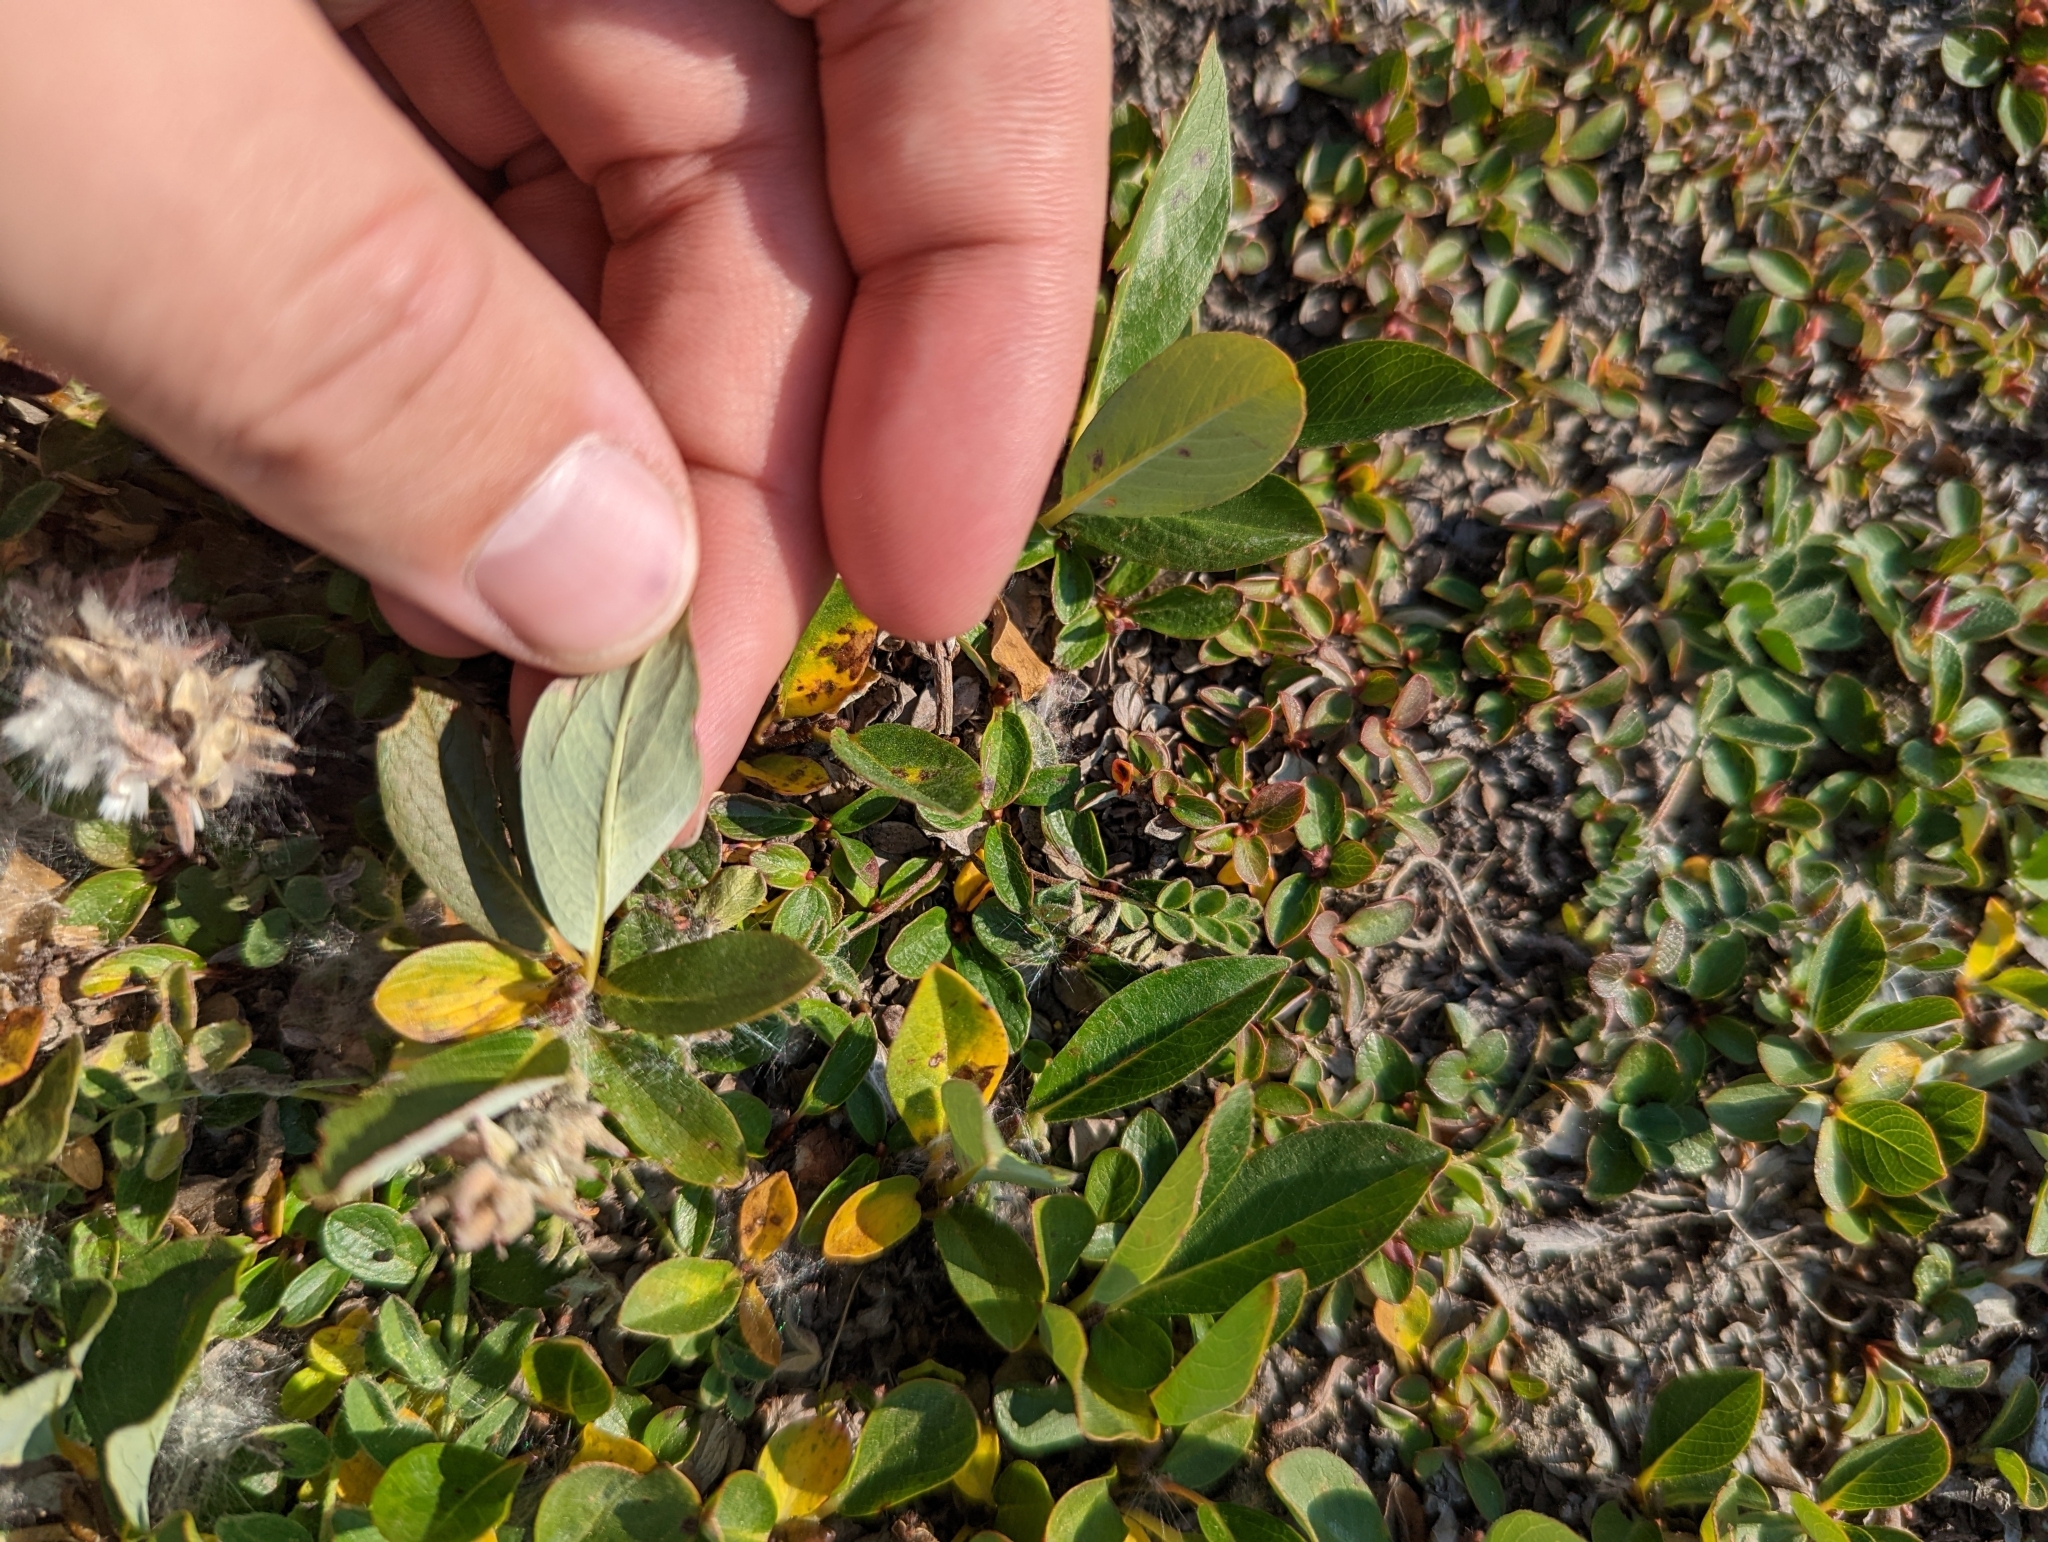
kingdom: Plantae
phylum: Tracheophyta
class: Magnoliopsida
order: Malpighiales
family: Salicaceae
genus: Salix
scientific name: Salix arctica
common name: Arctic willow
